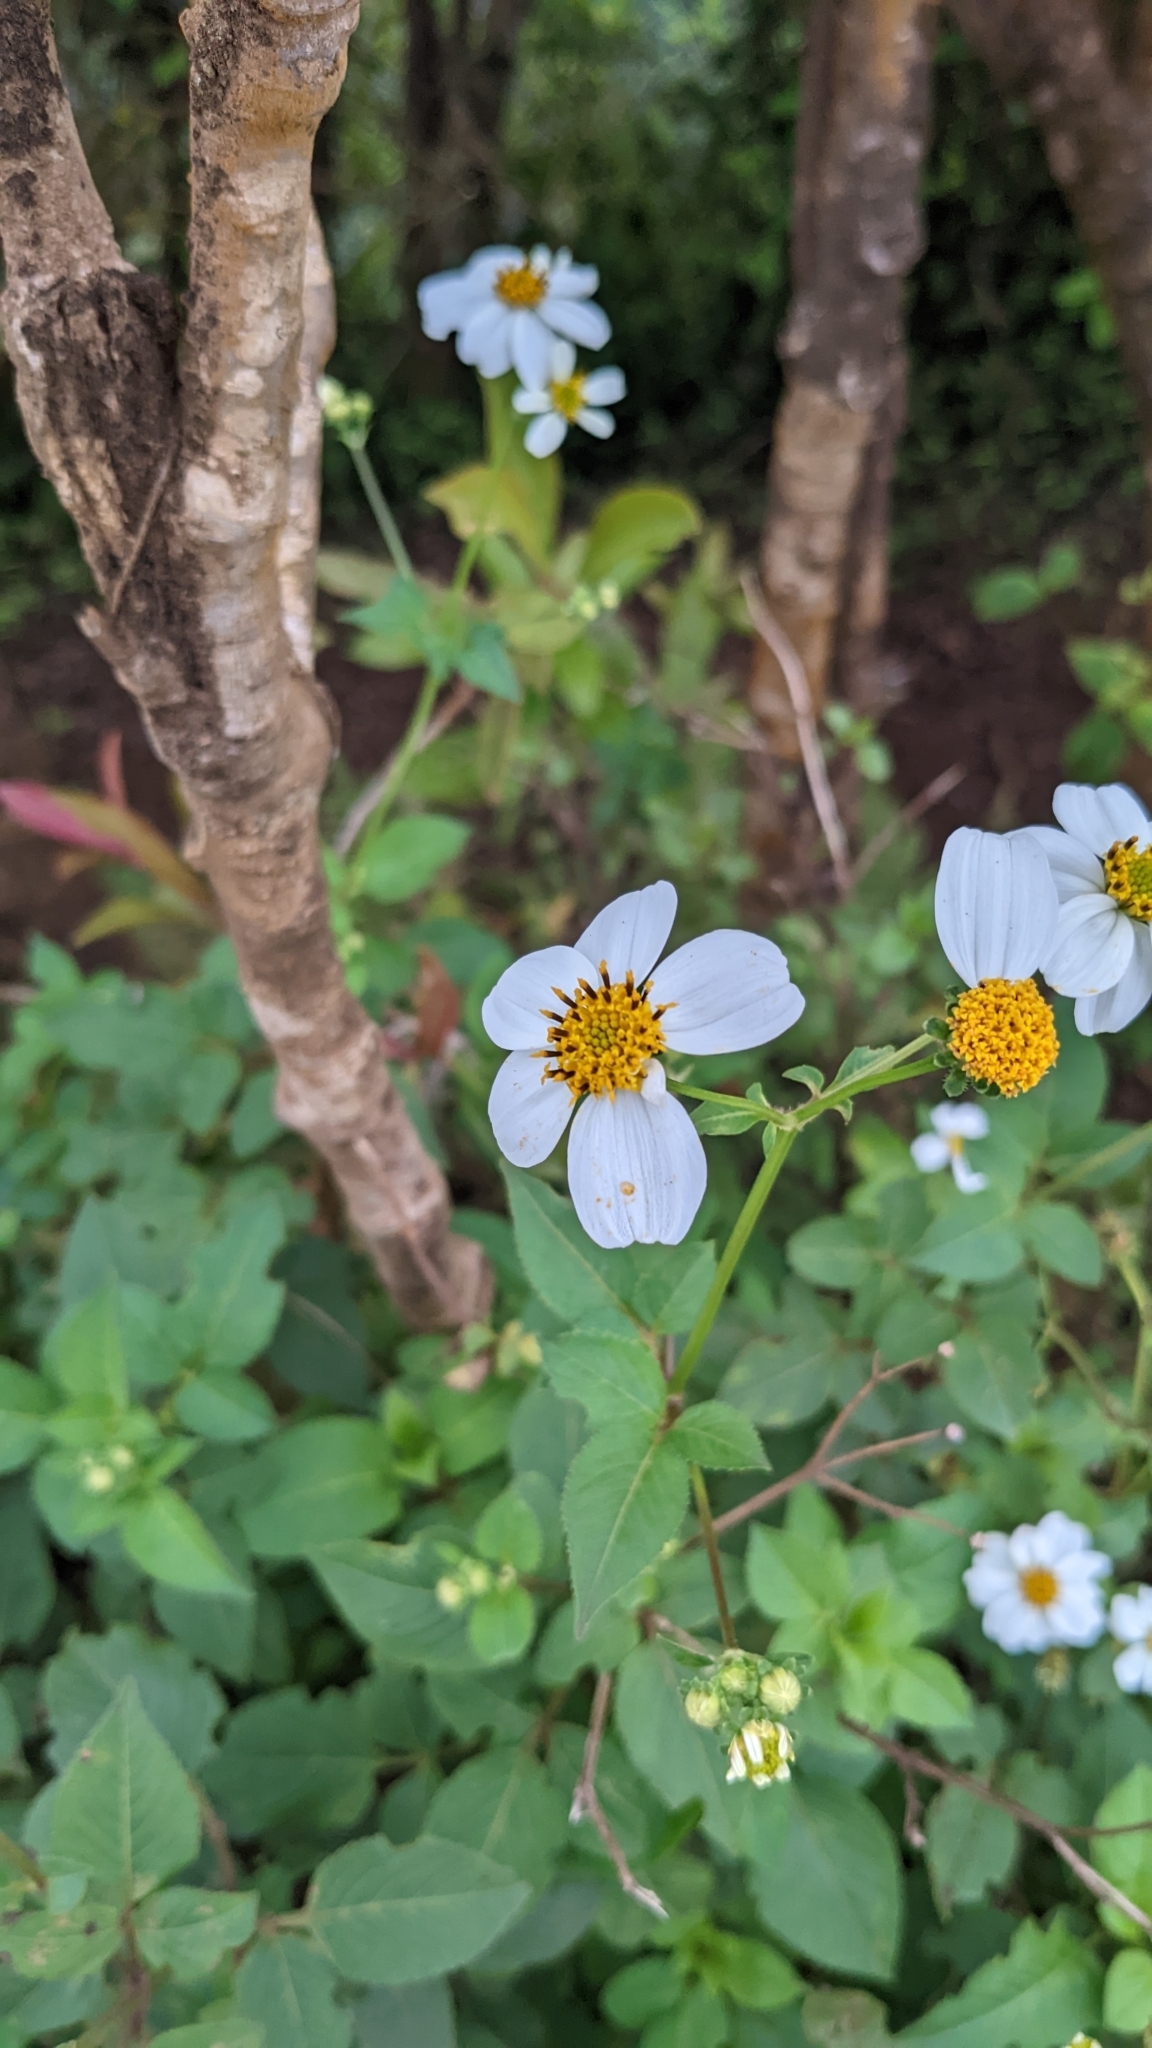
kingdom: Plantae
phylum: Tracheophyta
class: Magnoliopsida
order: Asterales
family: Asteraceae
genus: Bidens
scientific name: Bidens alba
